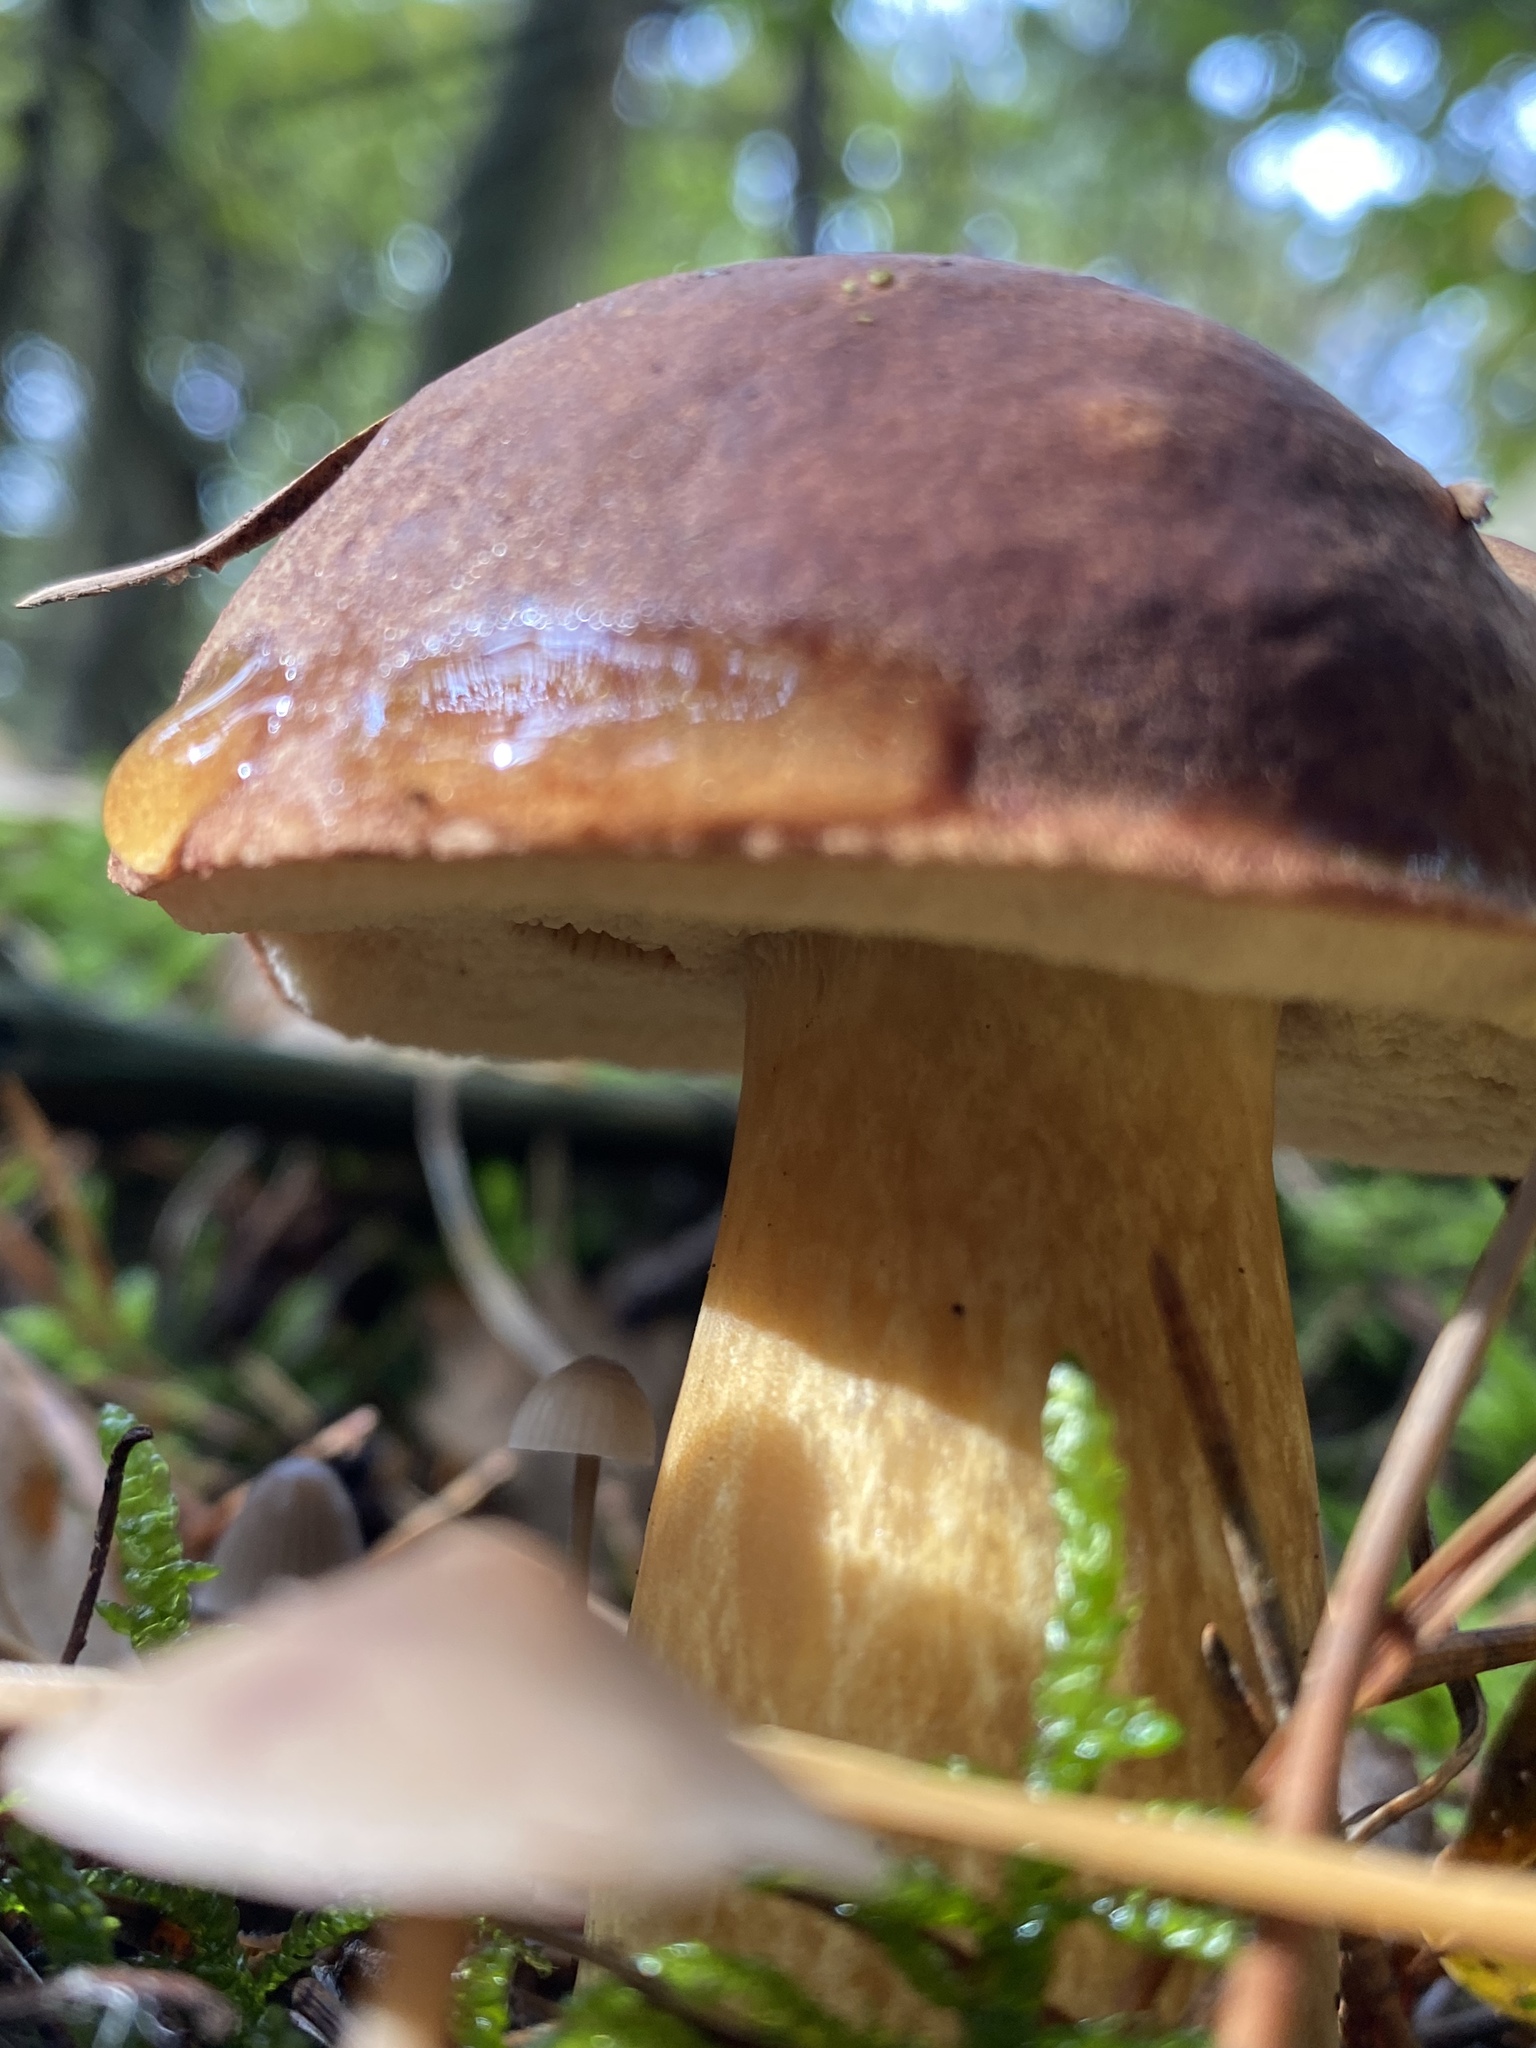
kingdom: Fungi
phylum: Basidiomycota
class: Agaricomycetes
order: Boletales
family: Boletaceae
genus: Imleria
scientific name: Imleria badia
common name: Bay bolete
